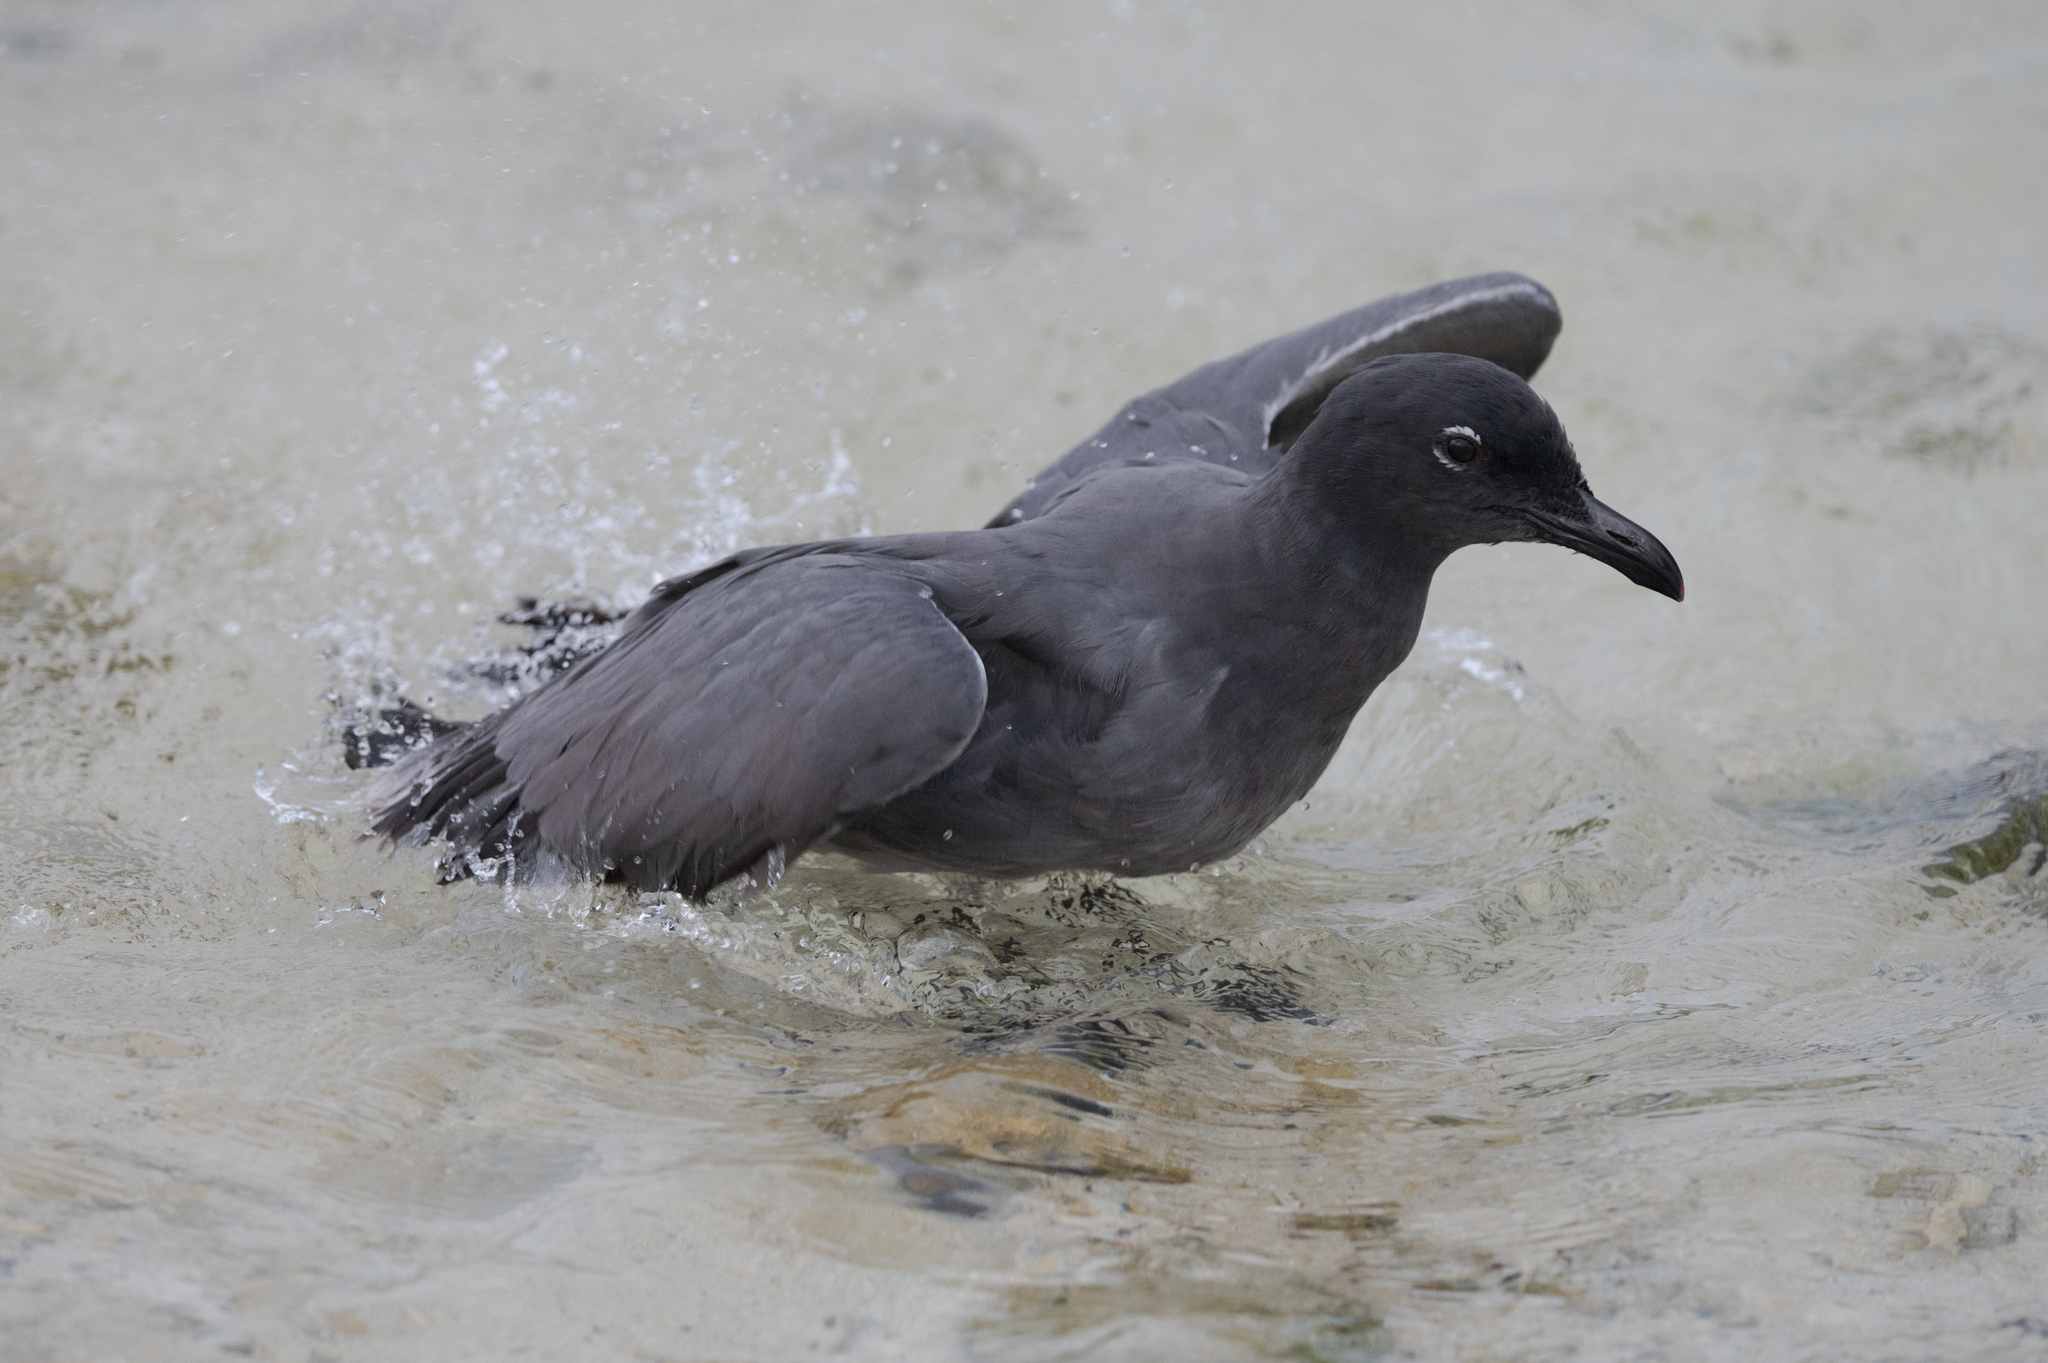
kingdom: Animalia
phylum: Chordata
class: Aves
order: Charadriiformes
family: Laridae
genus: Leucophaeus
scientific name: Leucophaeus fuliginosus
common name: Lava gull
